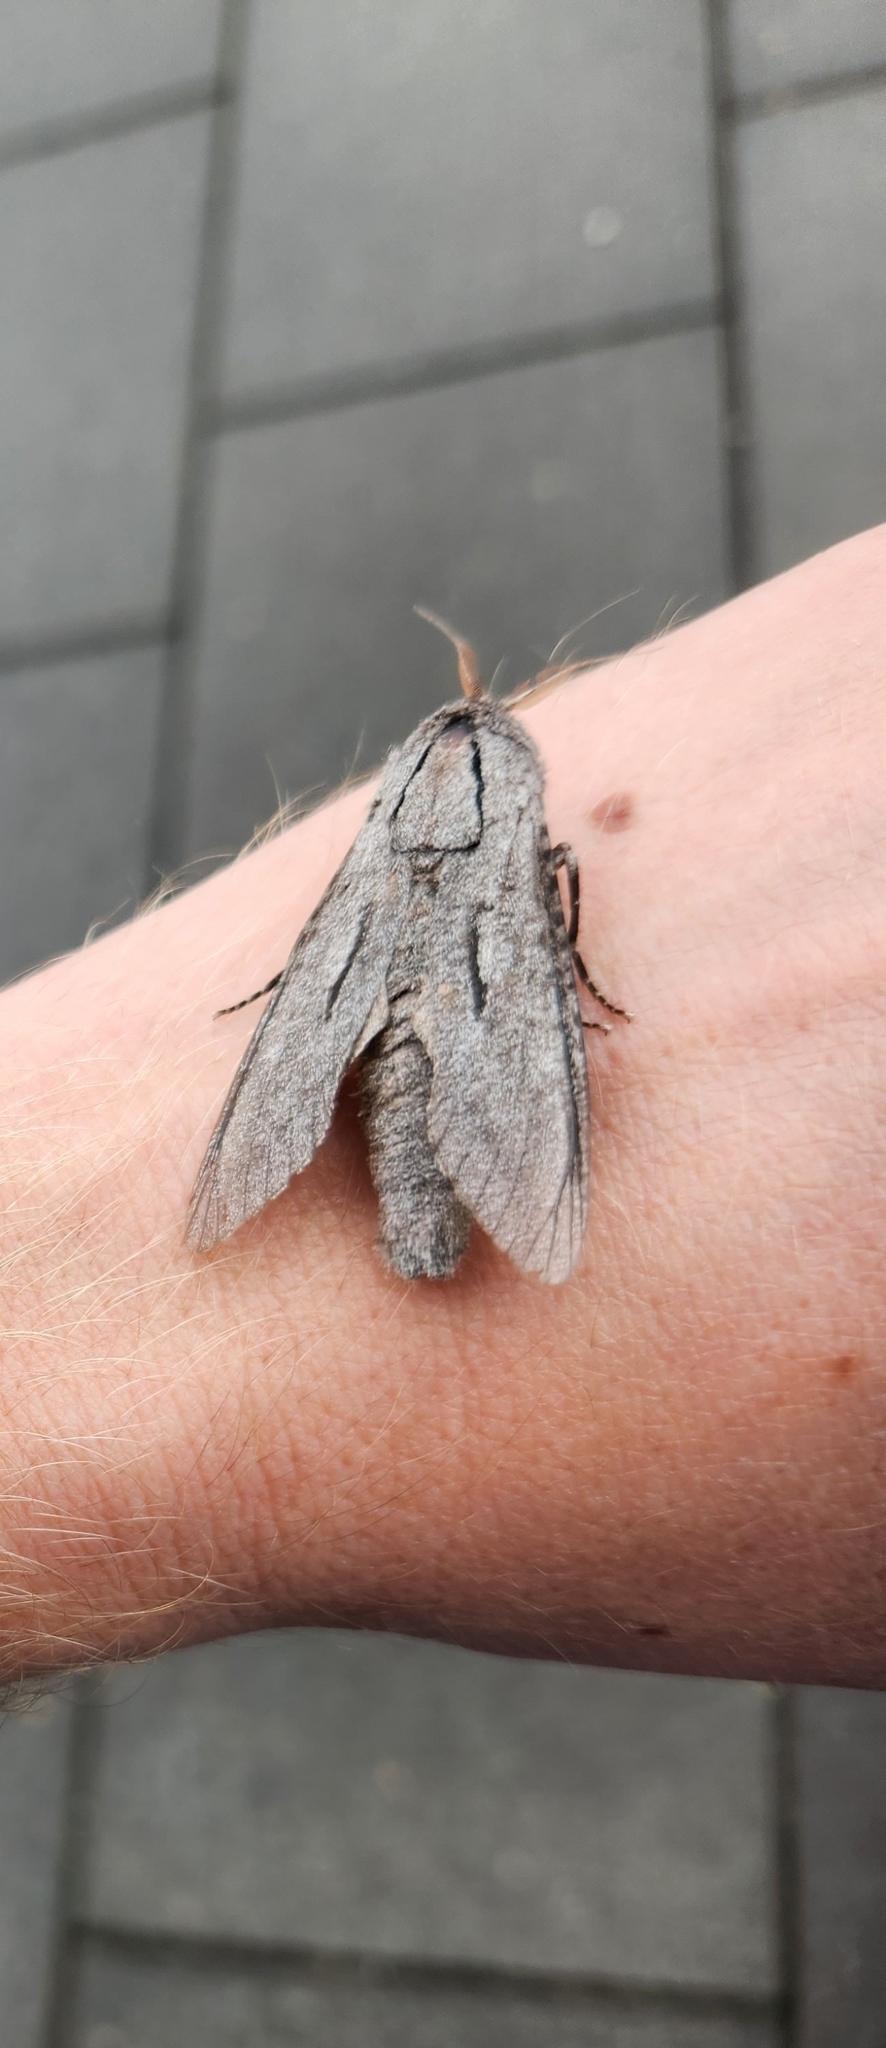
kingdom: Animalia
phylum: Arthropoda
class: Insecta
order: Lepidoptera
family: Cossidae
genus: Endoxyla
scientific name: Endoxyla acontucha
